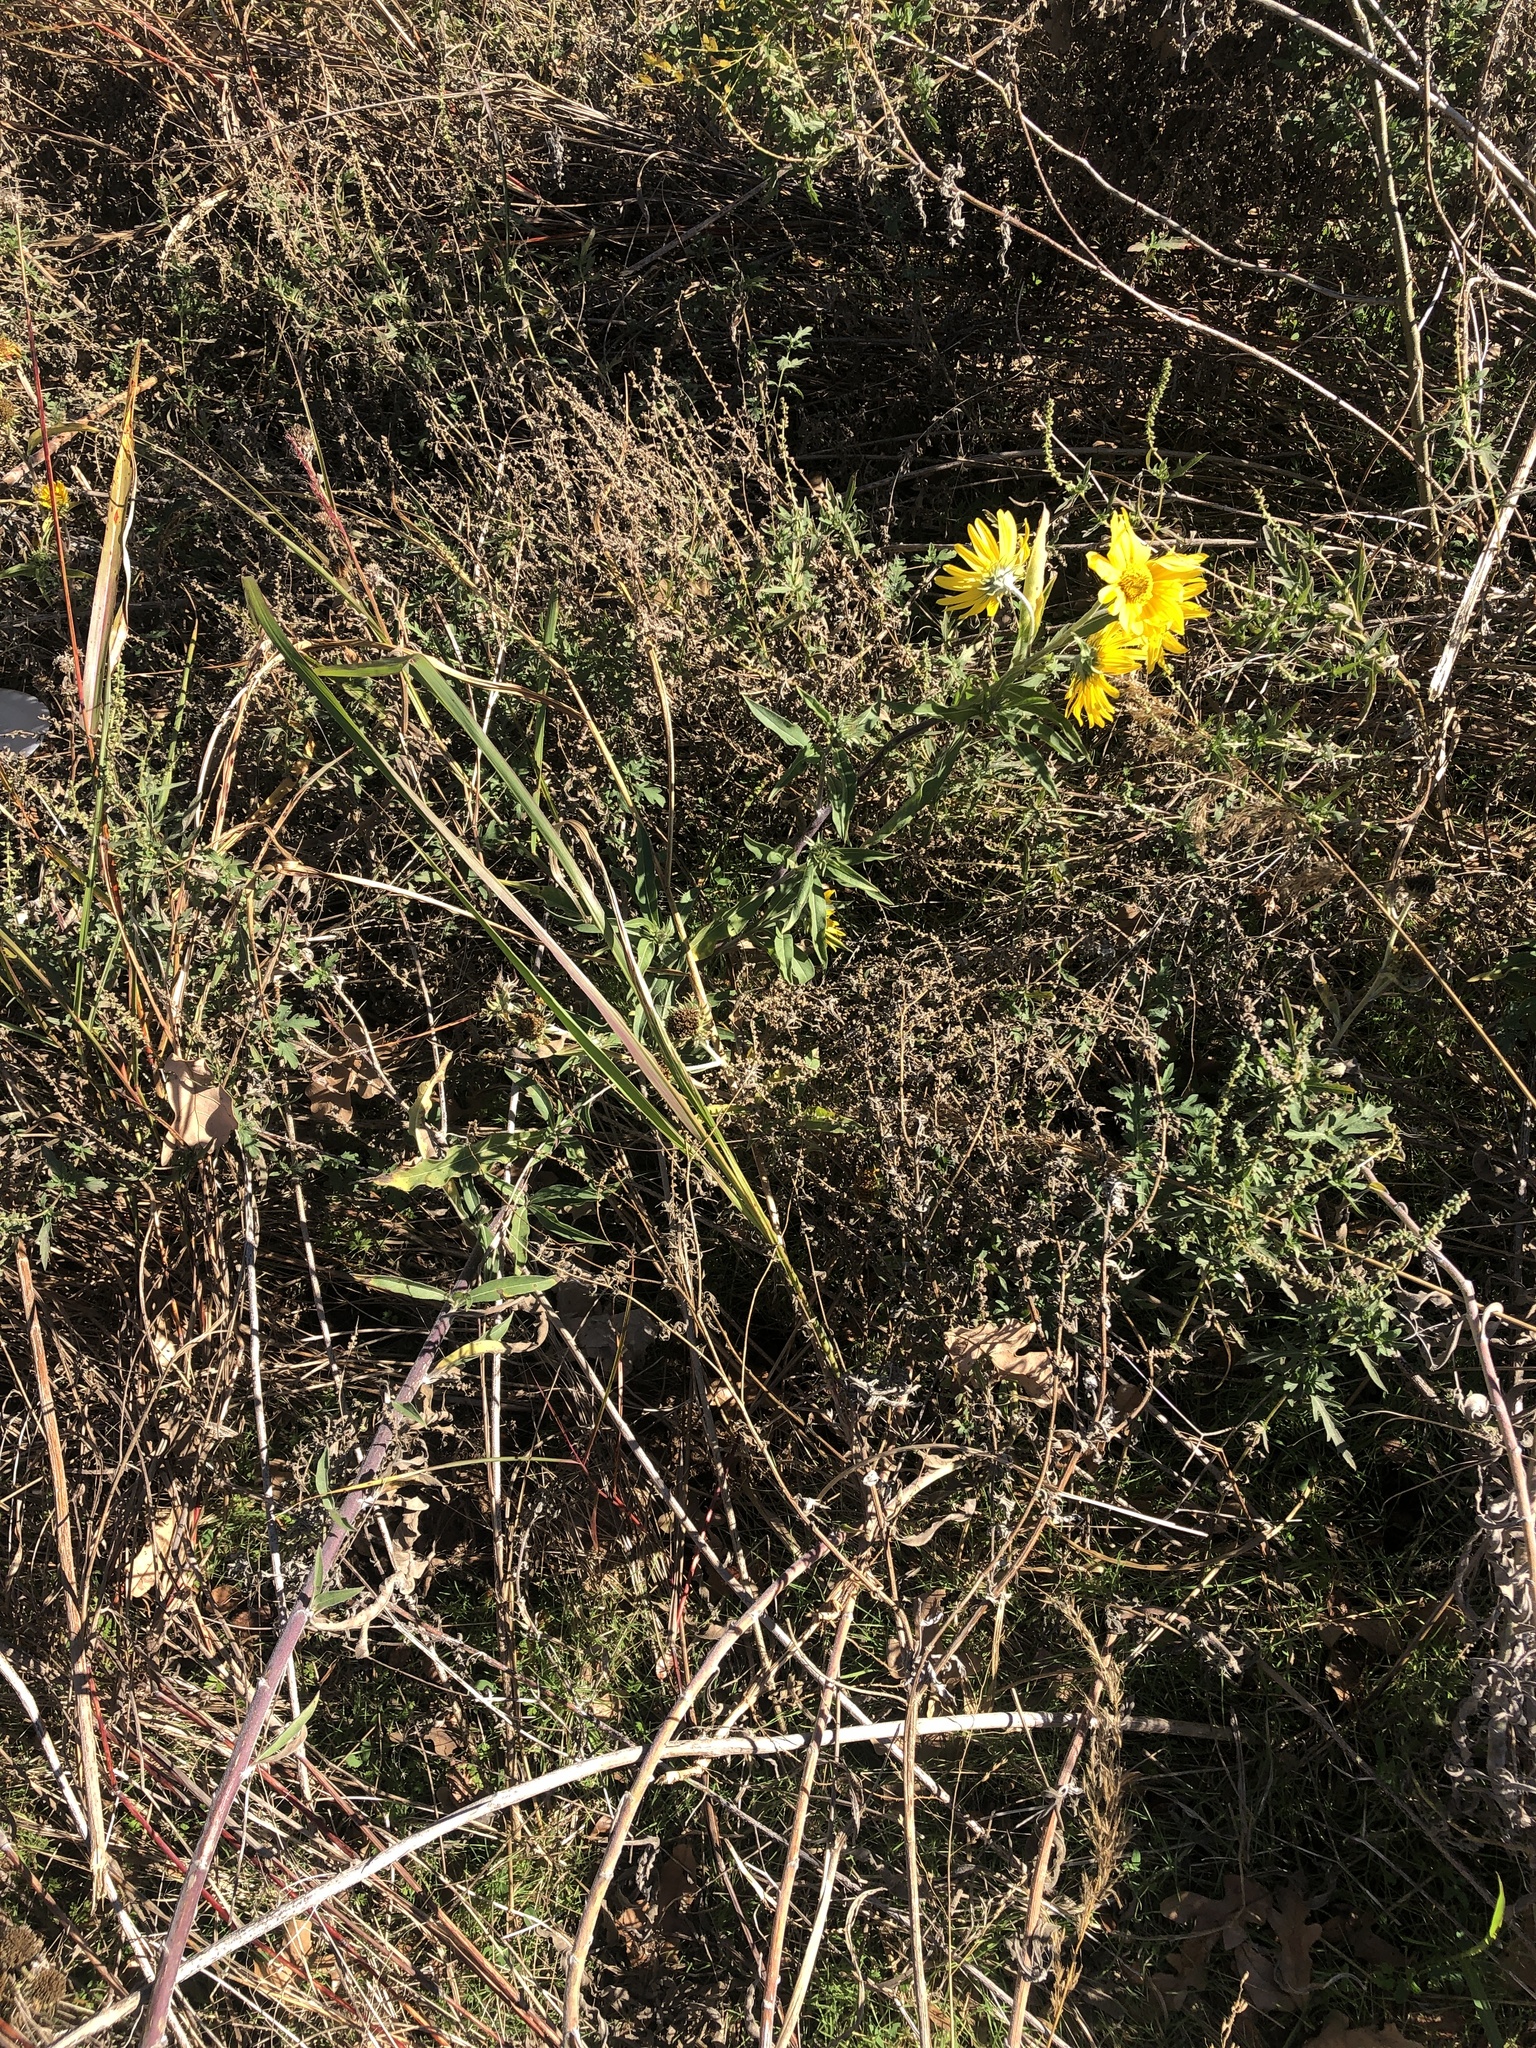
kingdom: Plantae
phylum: Tracheophyta
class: Magnoliopsida
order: Asterales
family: Asteraceae
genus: Helianthus
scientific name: Helianthus maximiliani
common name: Maximilian's sunflower
